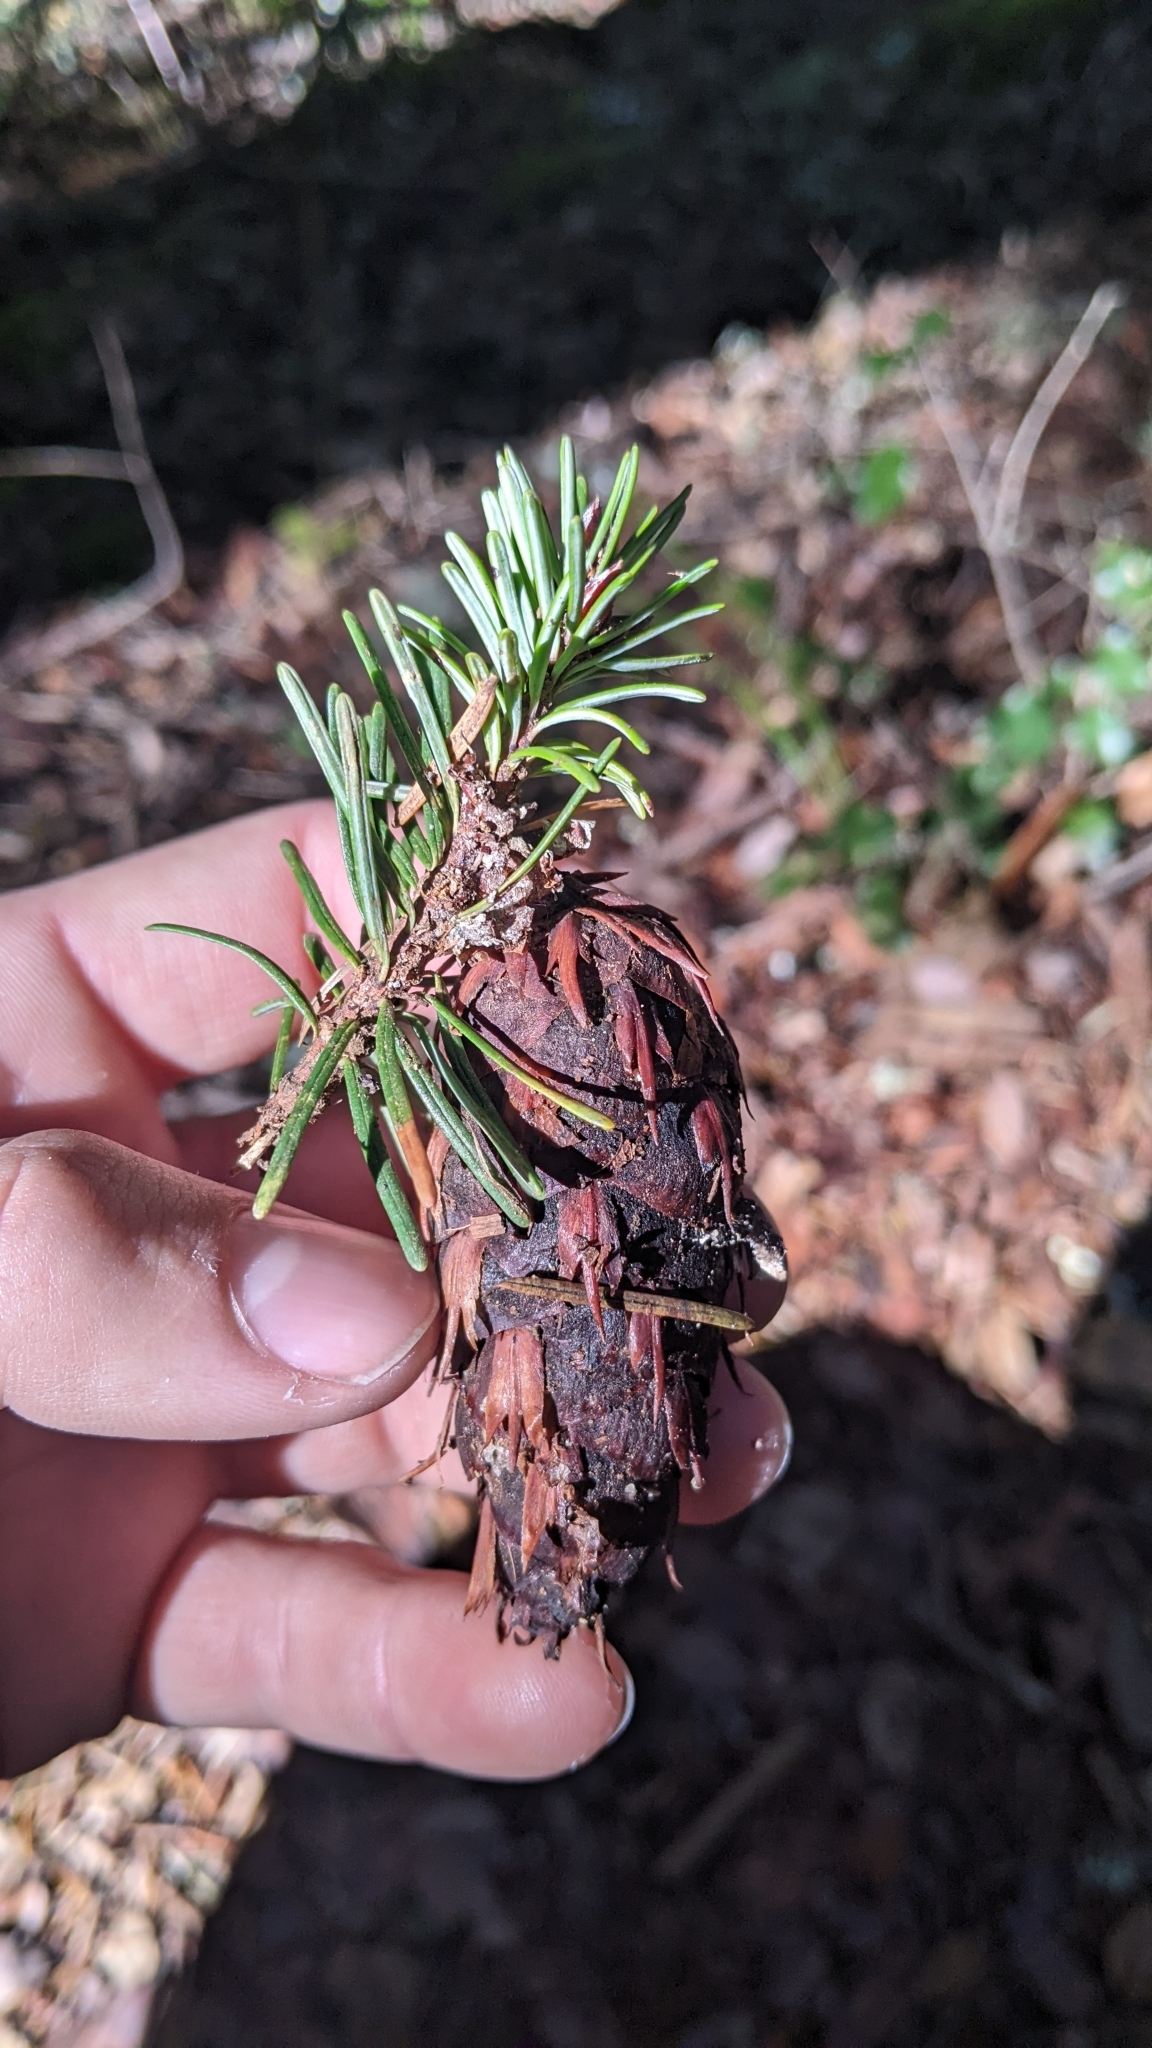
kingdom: Plantae
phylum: Tracheophyta
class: Pinopsida
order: Pinales
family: Pinaceae
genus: Pseudotsuga
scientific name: Pseudotsuga menziesii
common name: Douglas fir
